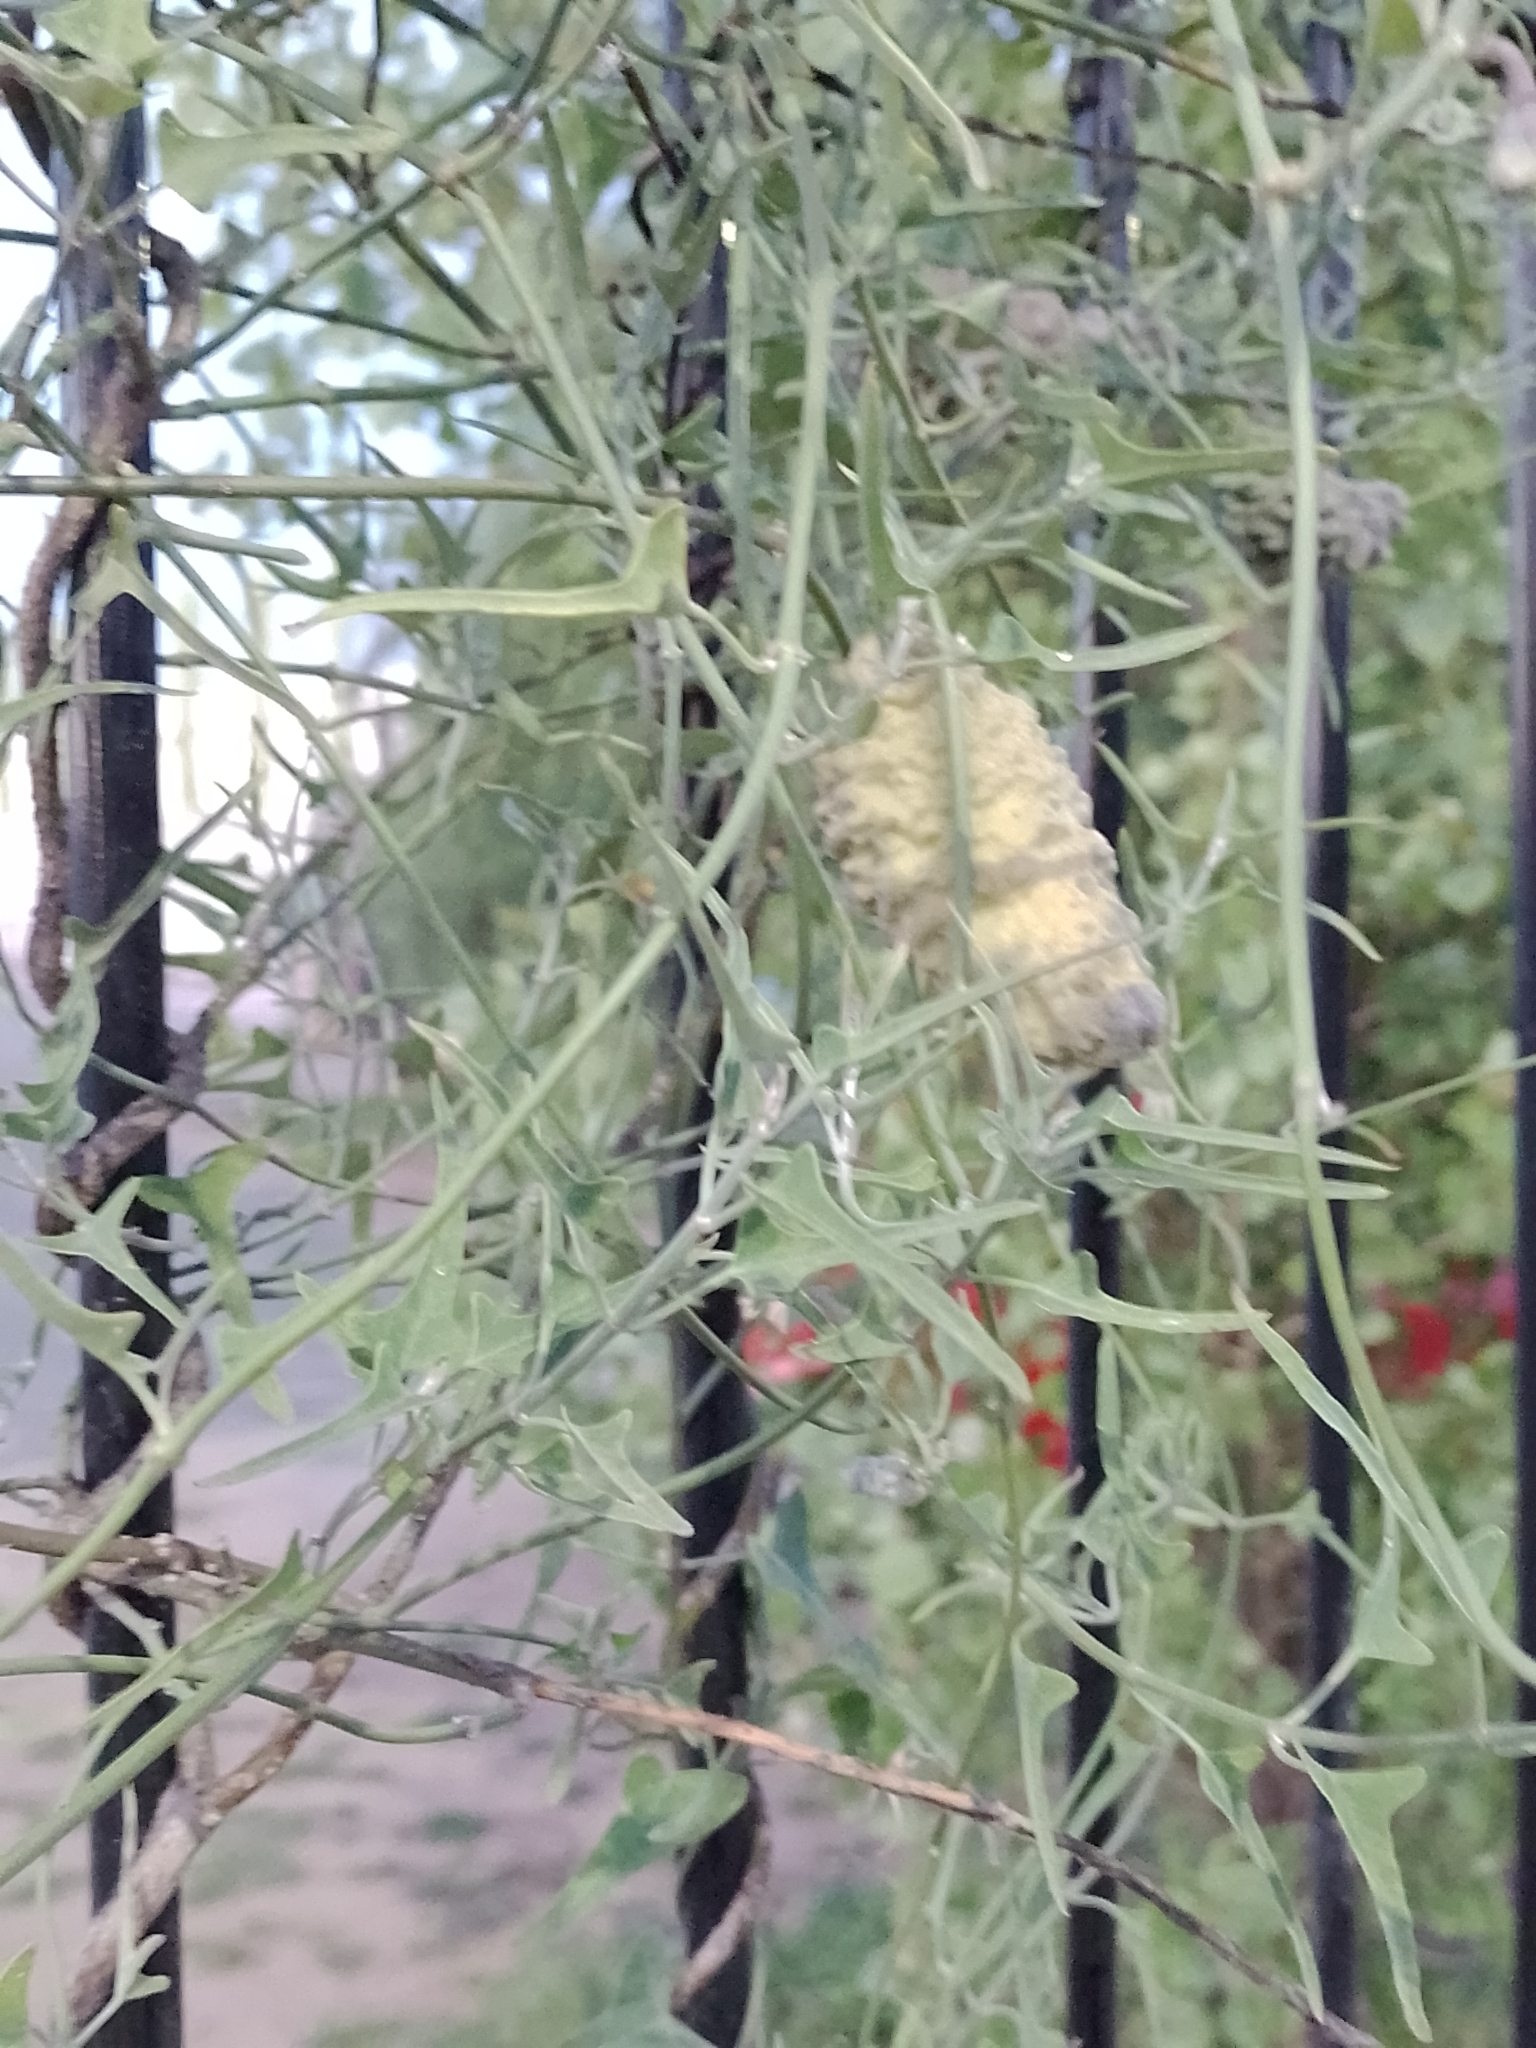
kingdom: Plantae
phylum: Tracheophyta
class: Magnoliopsida
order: Gentianales
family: Apocynaceae
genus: Araujia
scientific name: Araujia brachystephana
